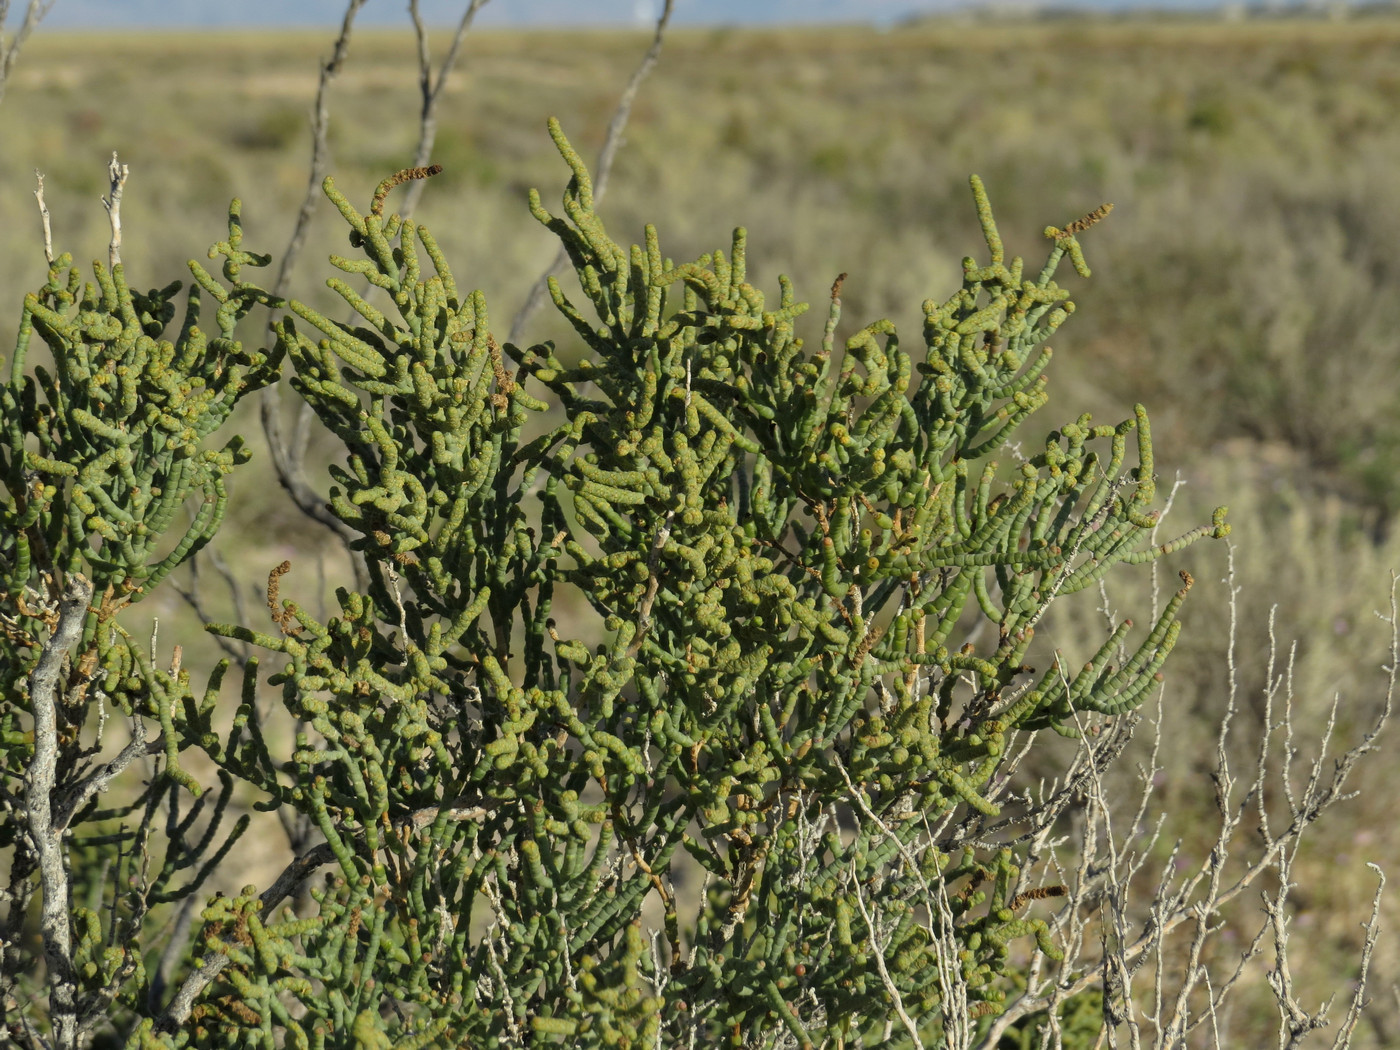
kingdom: Plantae
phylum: Tracheophyta
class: Magnoliopsida
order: Caryophyllales
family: Amaranthaceae
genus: Allenrolfea
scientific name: Allenrolfea occidentalis
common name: Iodine-bush
